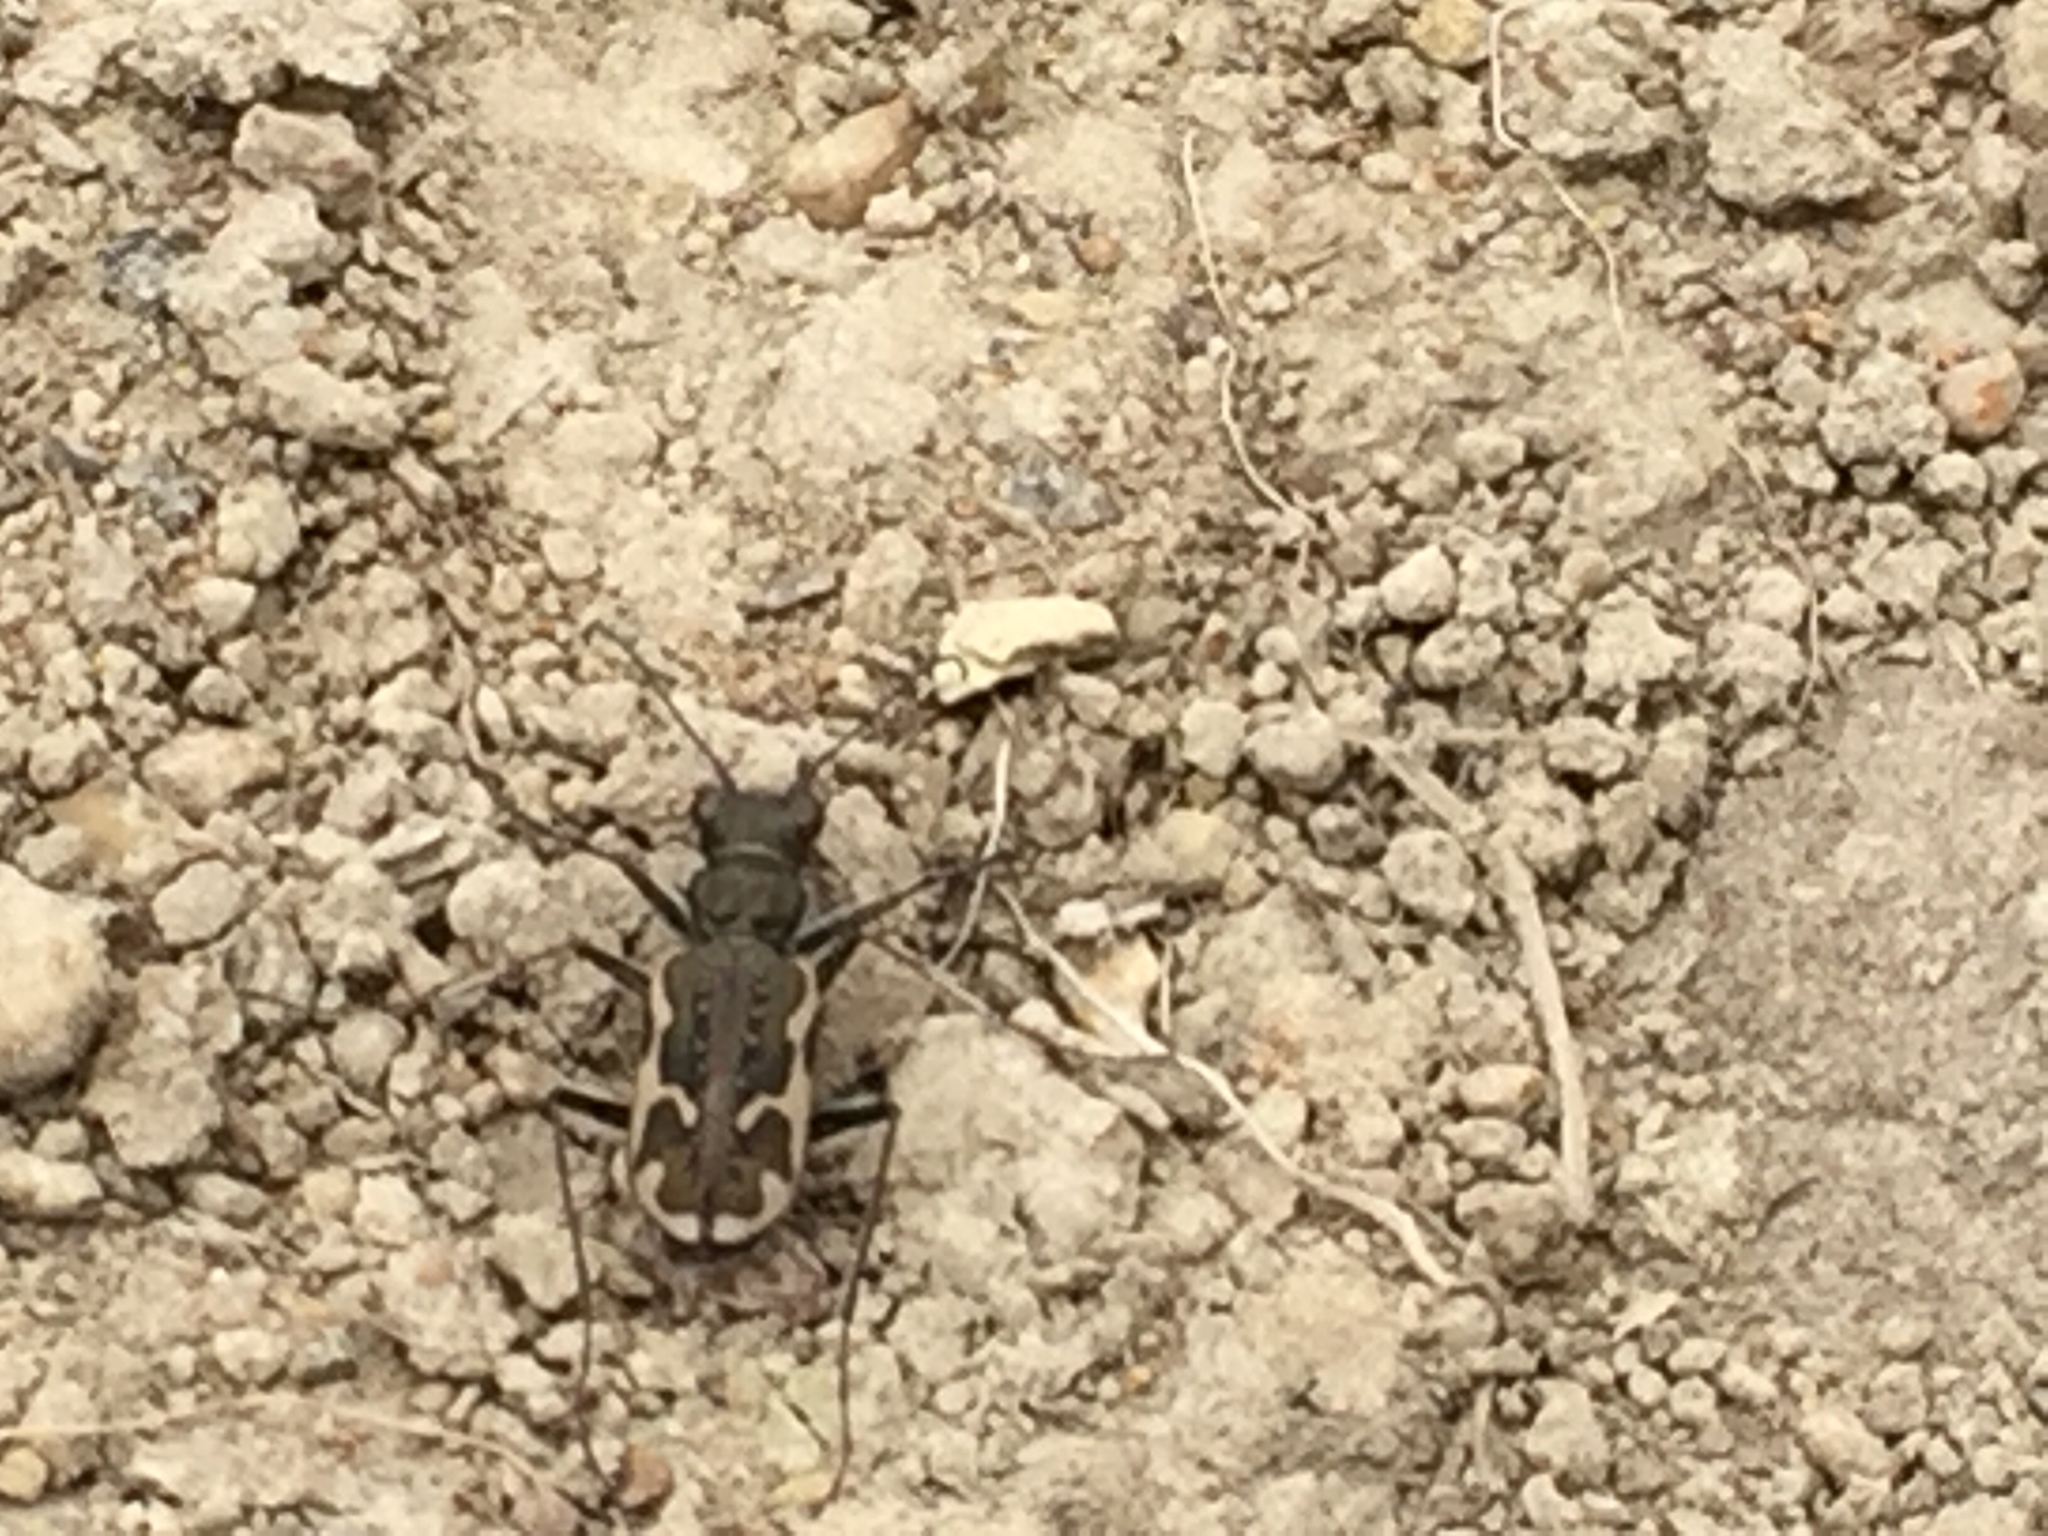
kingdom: Animalia
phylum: Arthropoda
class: Insecta
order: Coleoptera
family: Carabidae
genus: Neocicindela
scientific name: Neocicindela tuberculata
